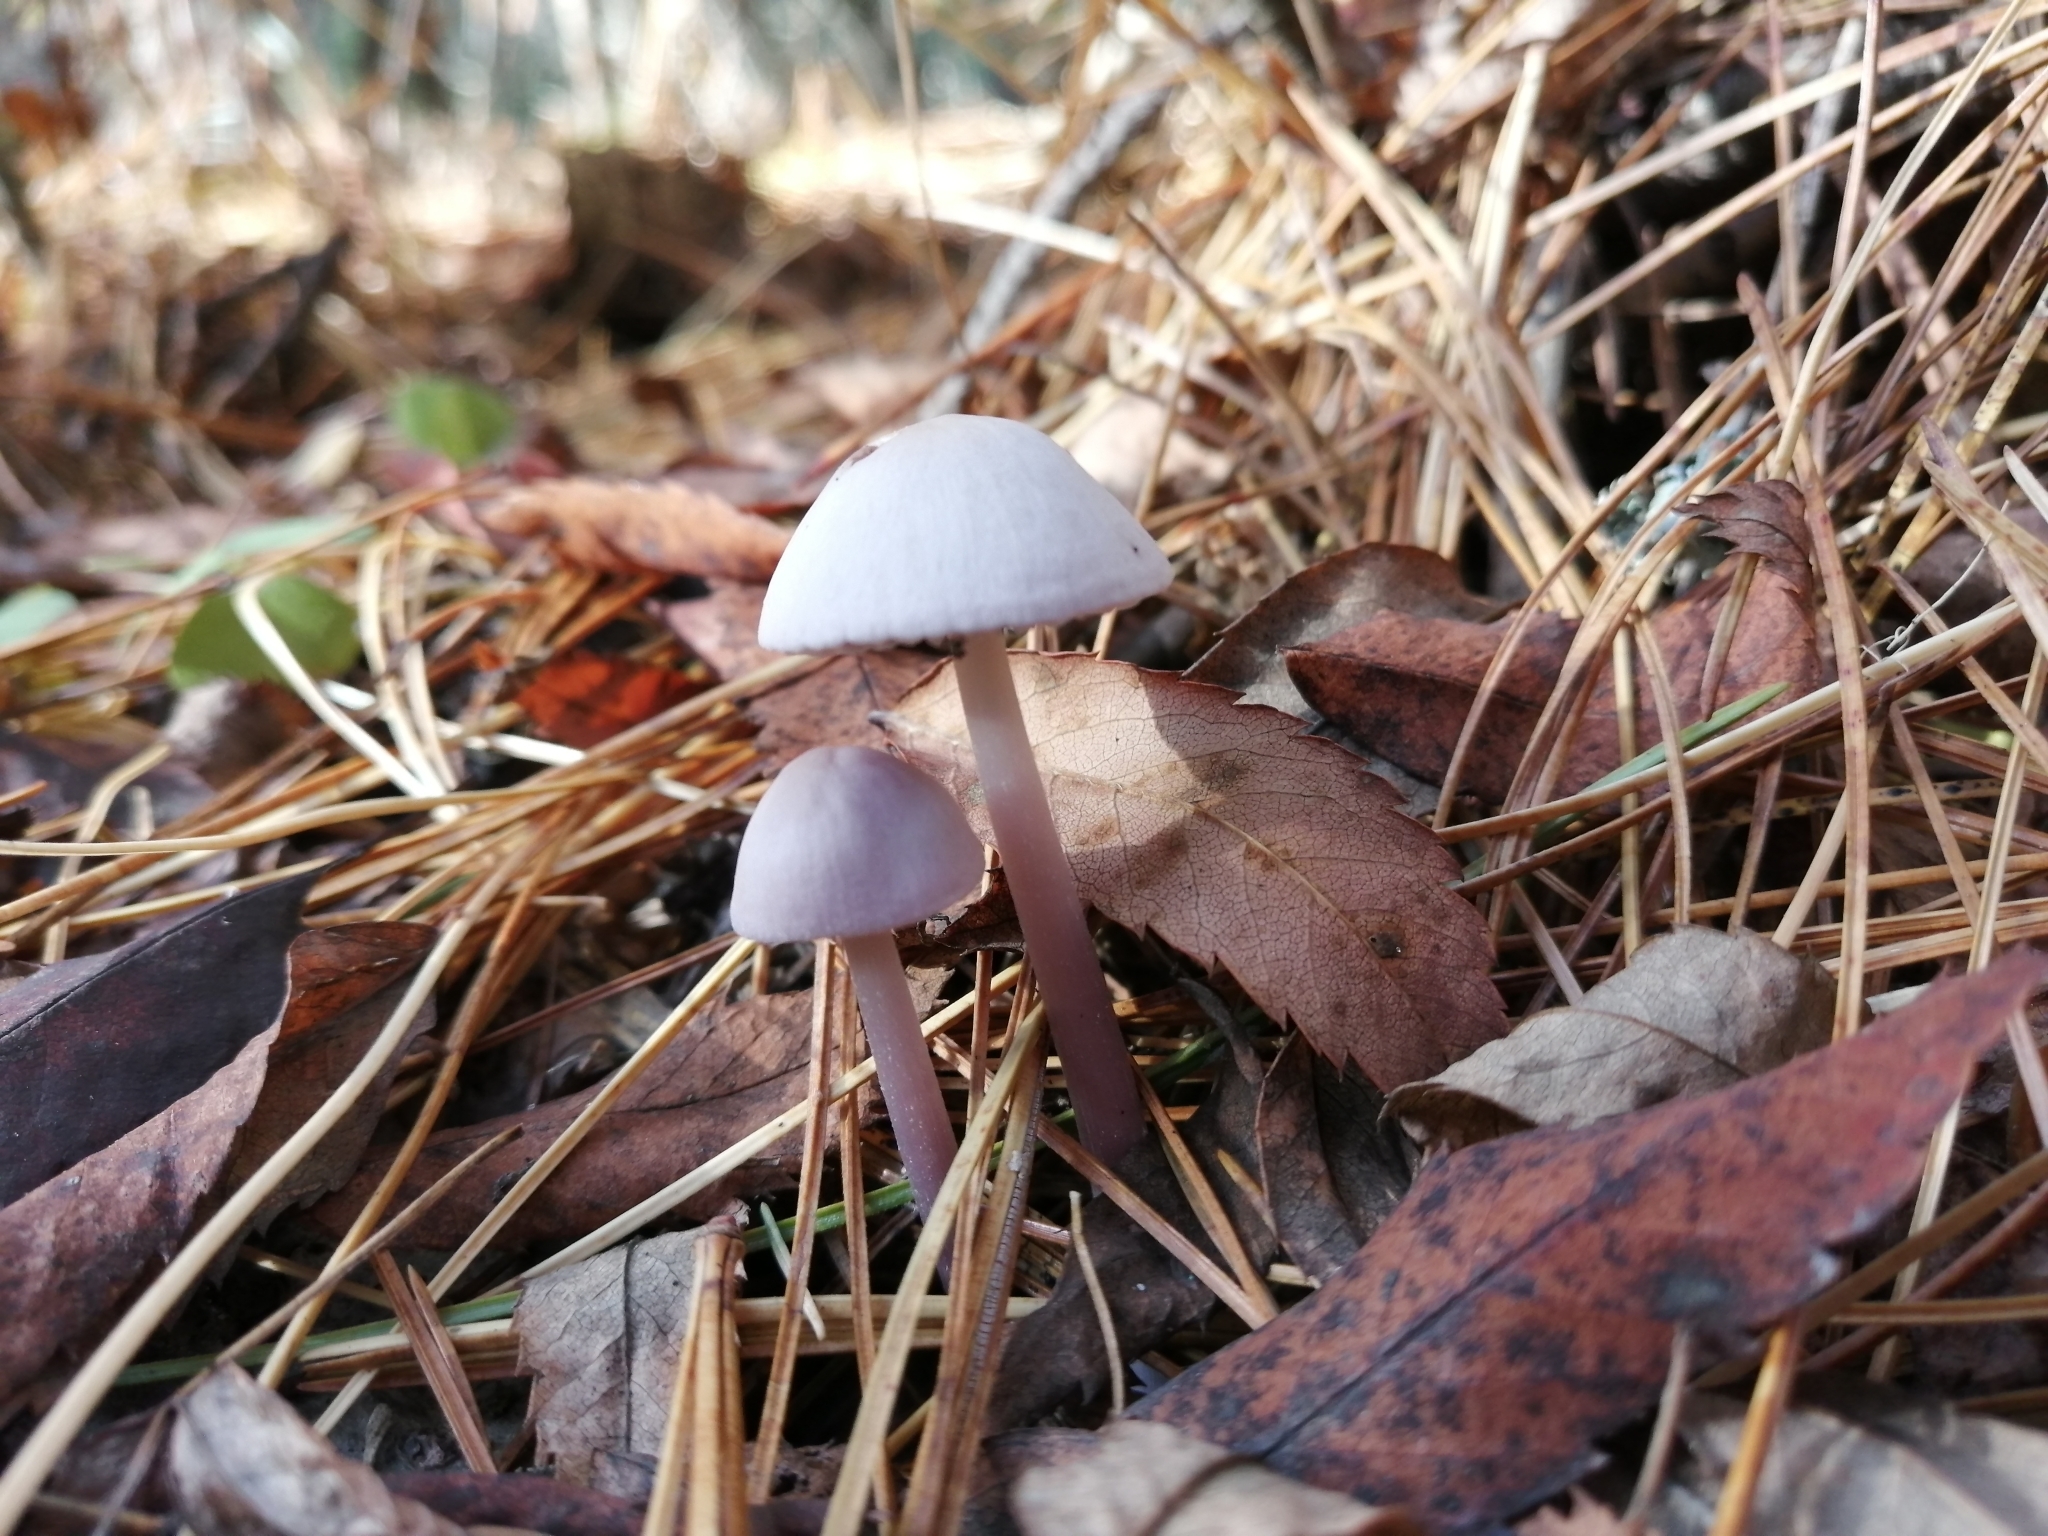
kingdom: Fungi
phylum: Basidiomycota
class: Agaricomycetes
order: Agaricales
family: Mycenaceae
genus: Mycena
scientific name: Mycena pura
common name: Lilac bonnet
